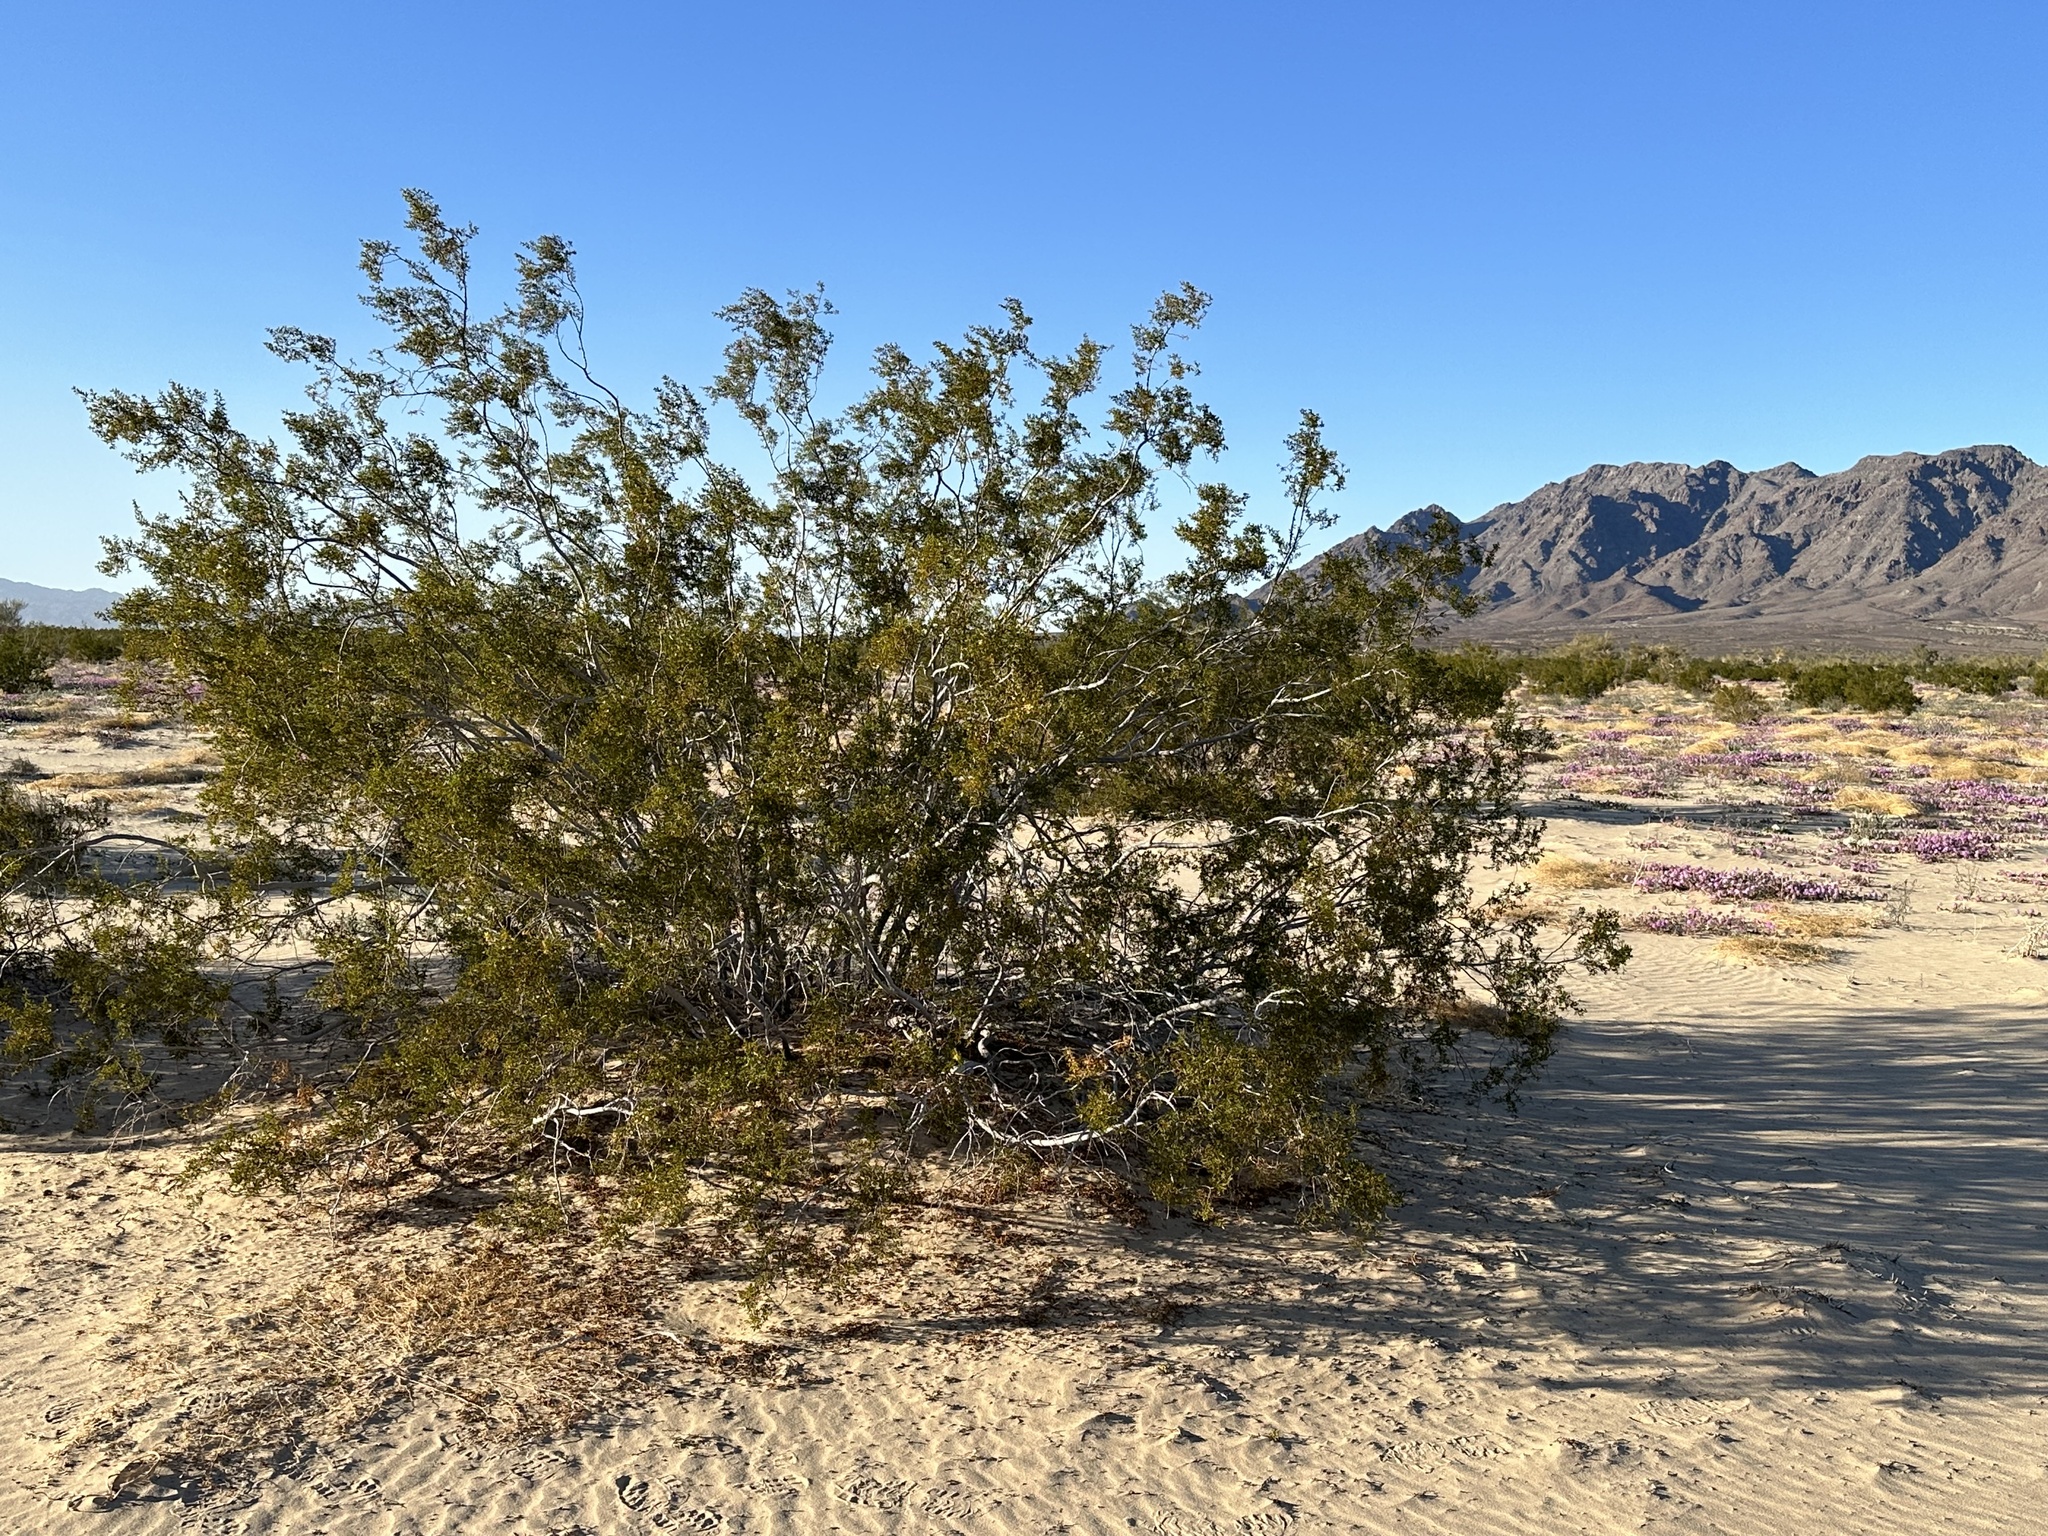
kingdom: Plantae
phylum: Tracheophyta
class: Magnoliopsida
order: Zygophyllales
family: Zygophyllaceae
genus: Larrea
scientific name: Larrea tridentata
